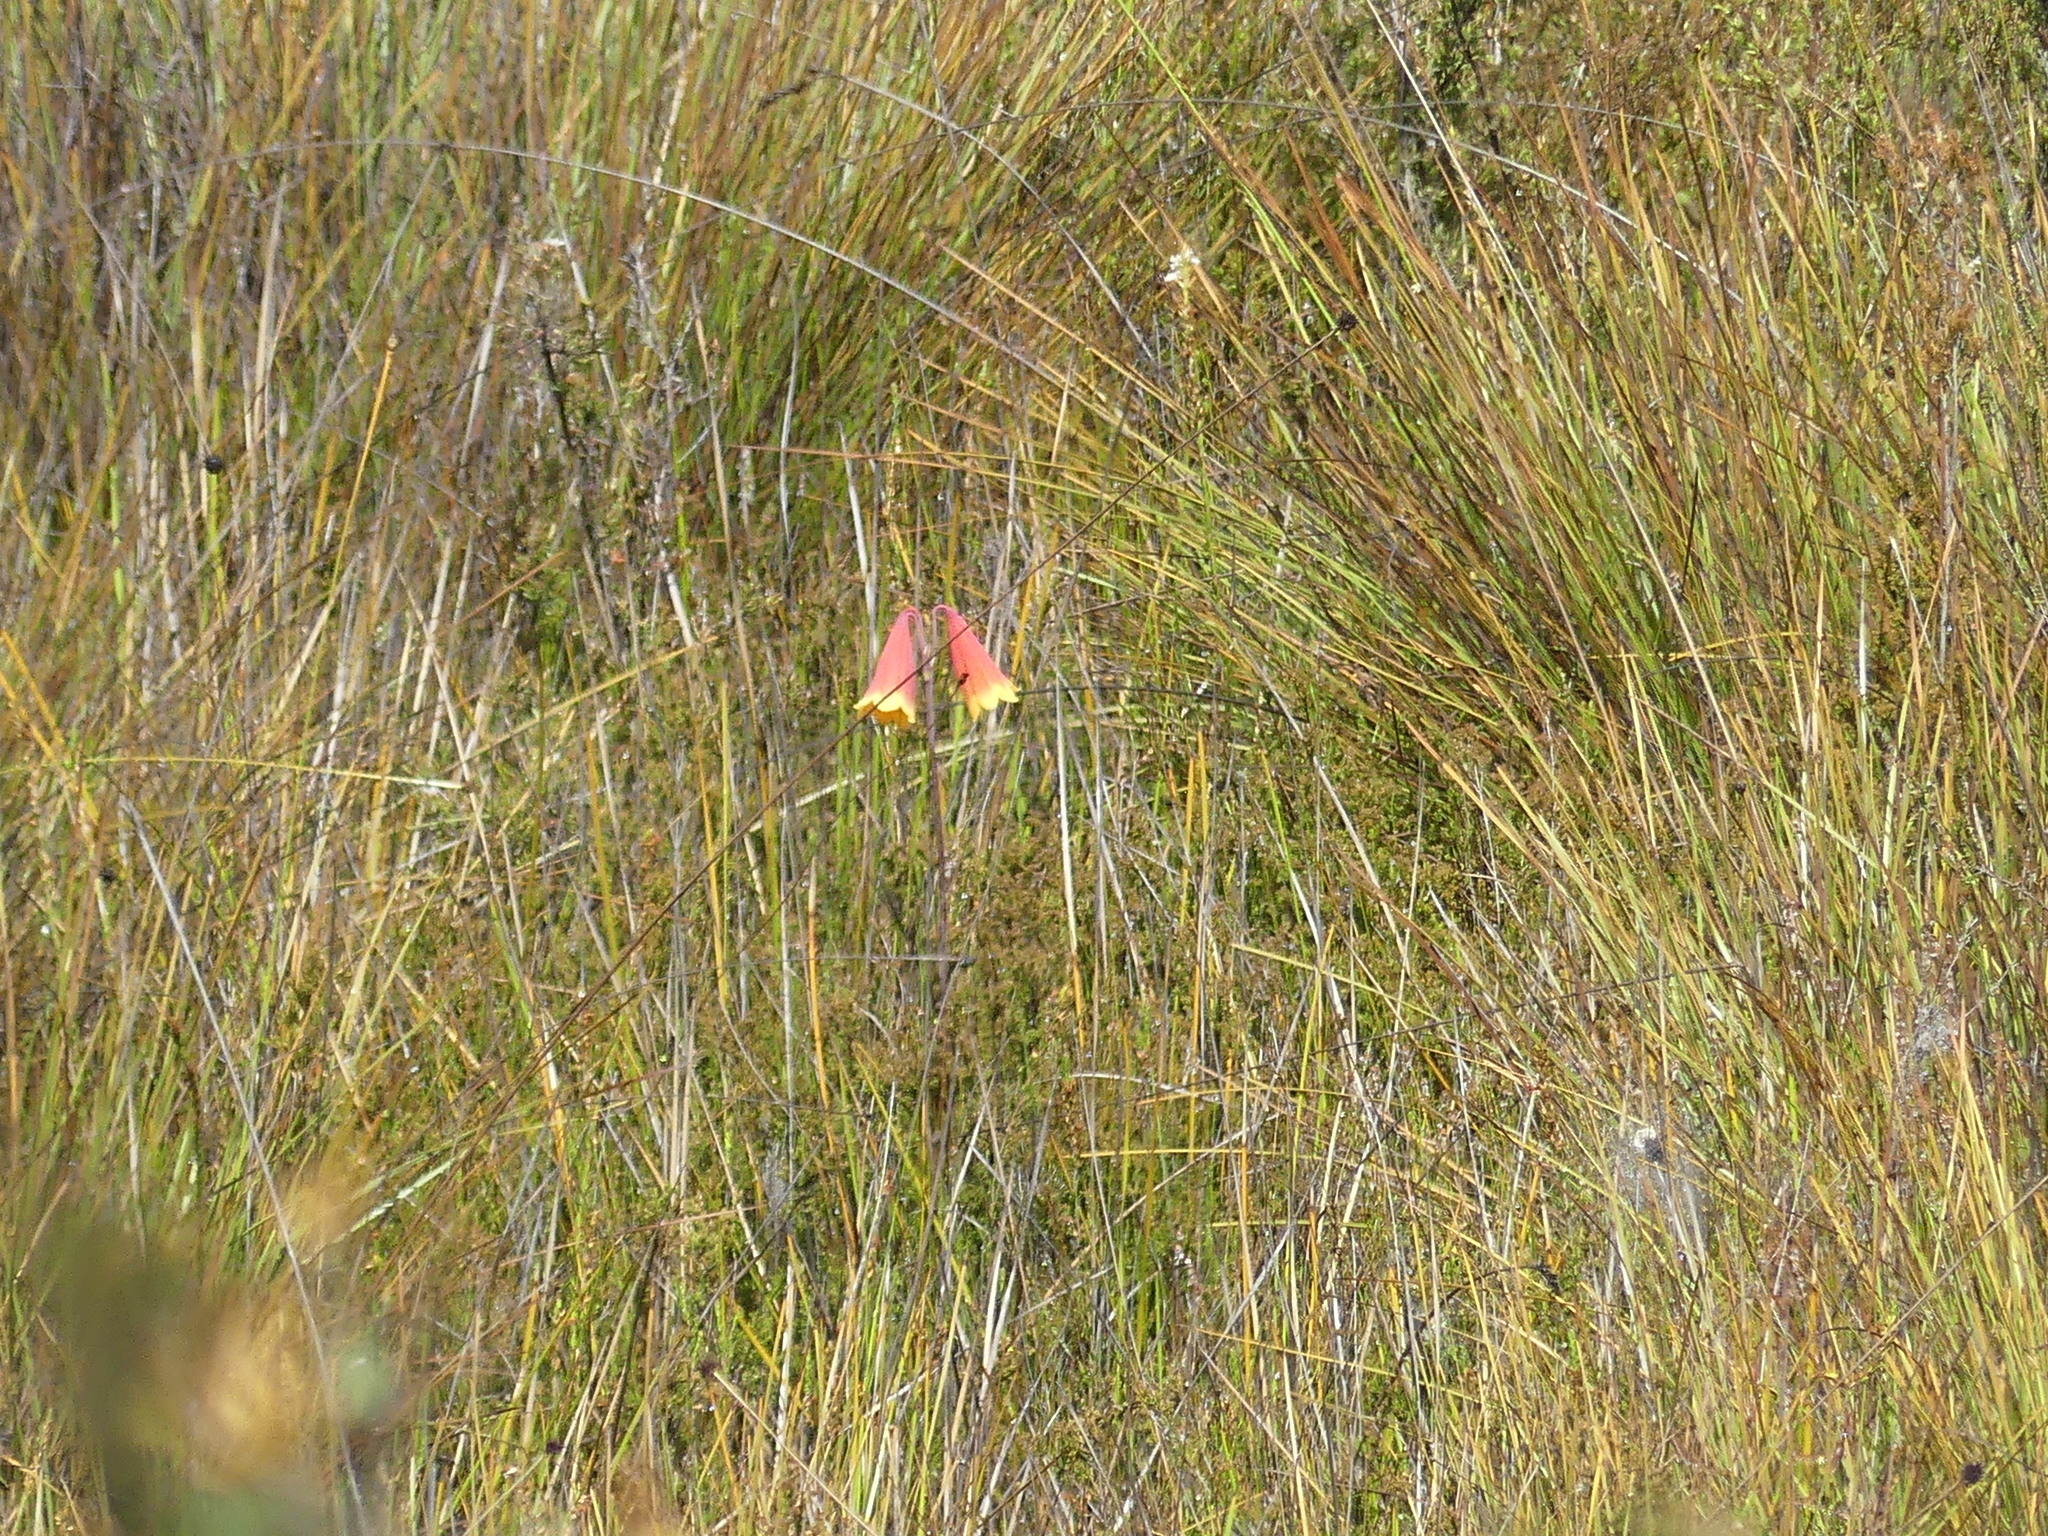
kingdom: Plantae
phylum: Tracheophyta
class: Liliopsida
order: Asparagales
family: Blandfordiaceae
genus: Blandfordia
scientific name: Blandfordia grandiflora
